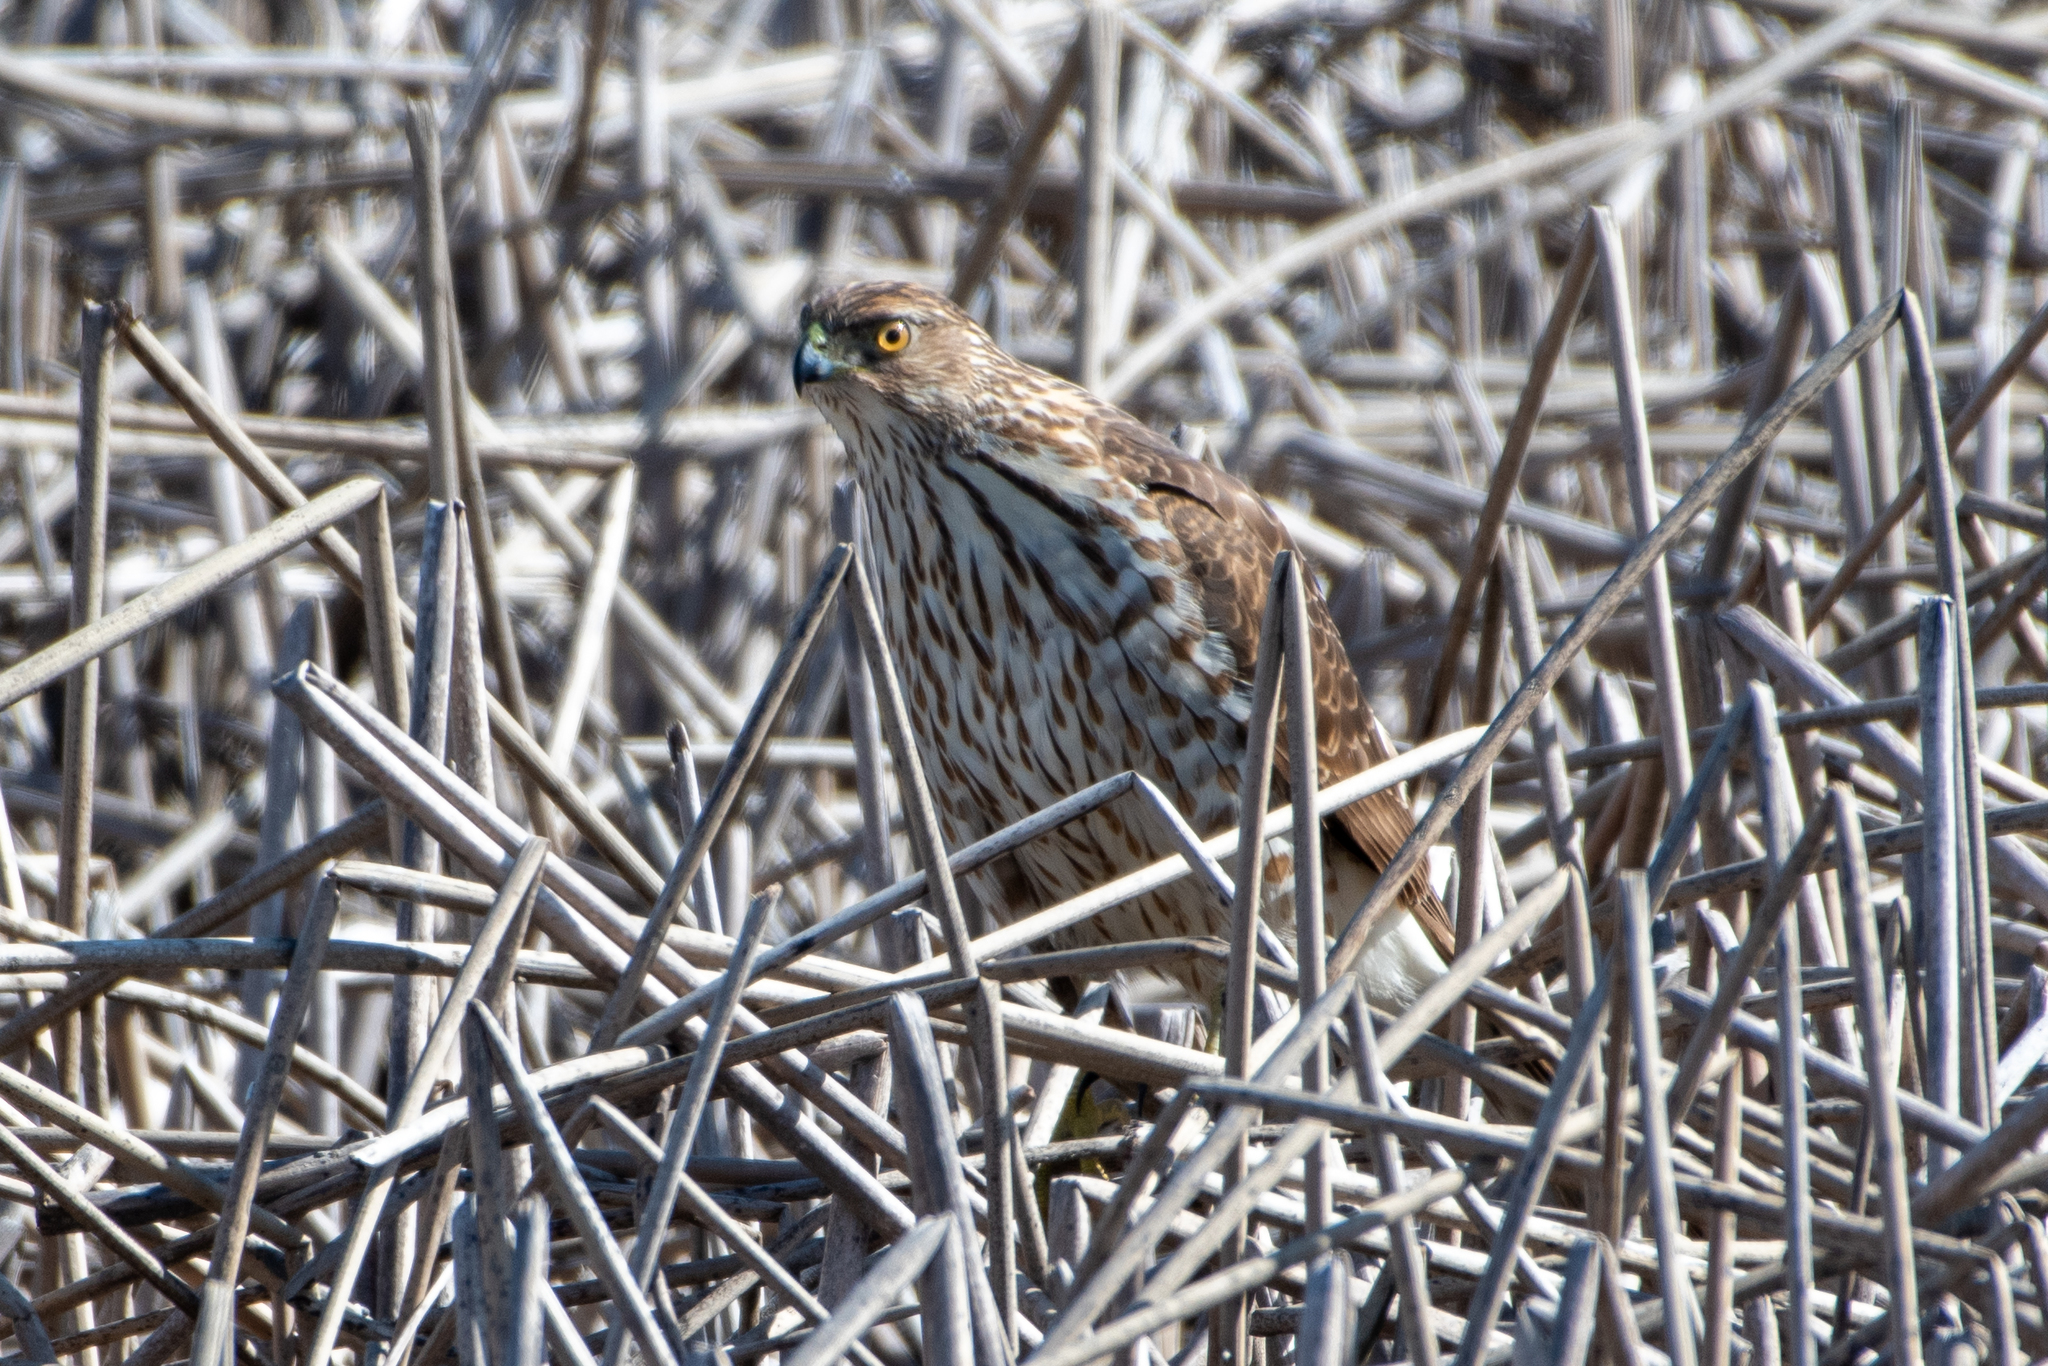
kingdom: Animalia
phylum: Chordata
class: Aves
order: Accipitriformes
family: Accipitridae
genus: Accipiter
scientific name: Accipiter cooperii
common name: Cooper's hawk
